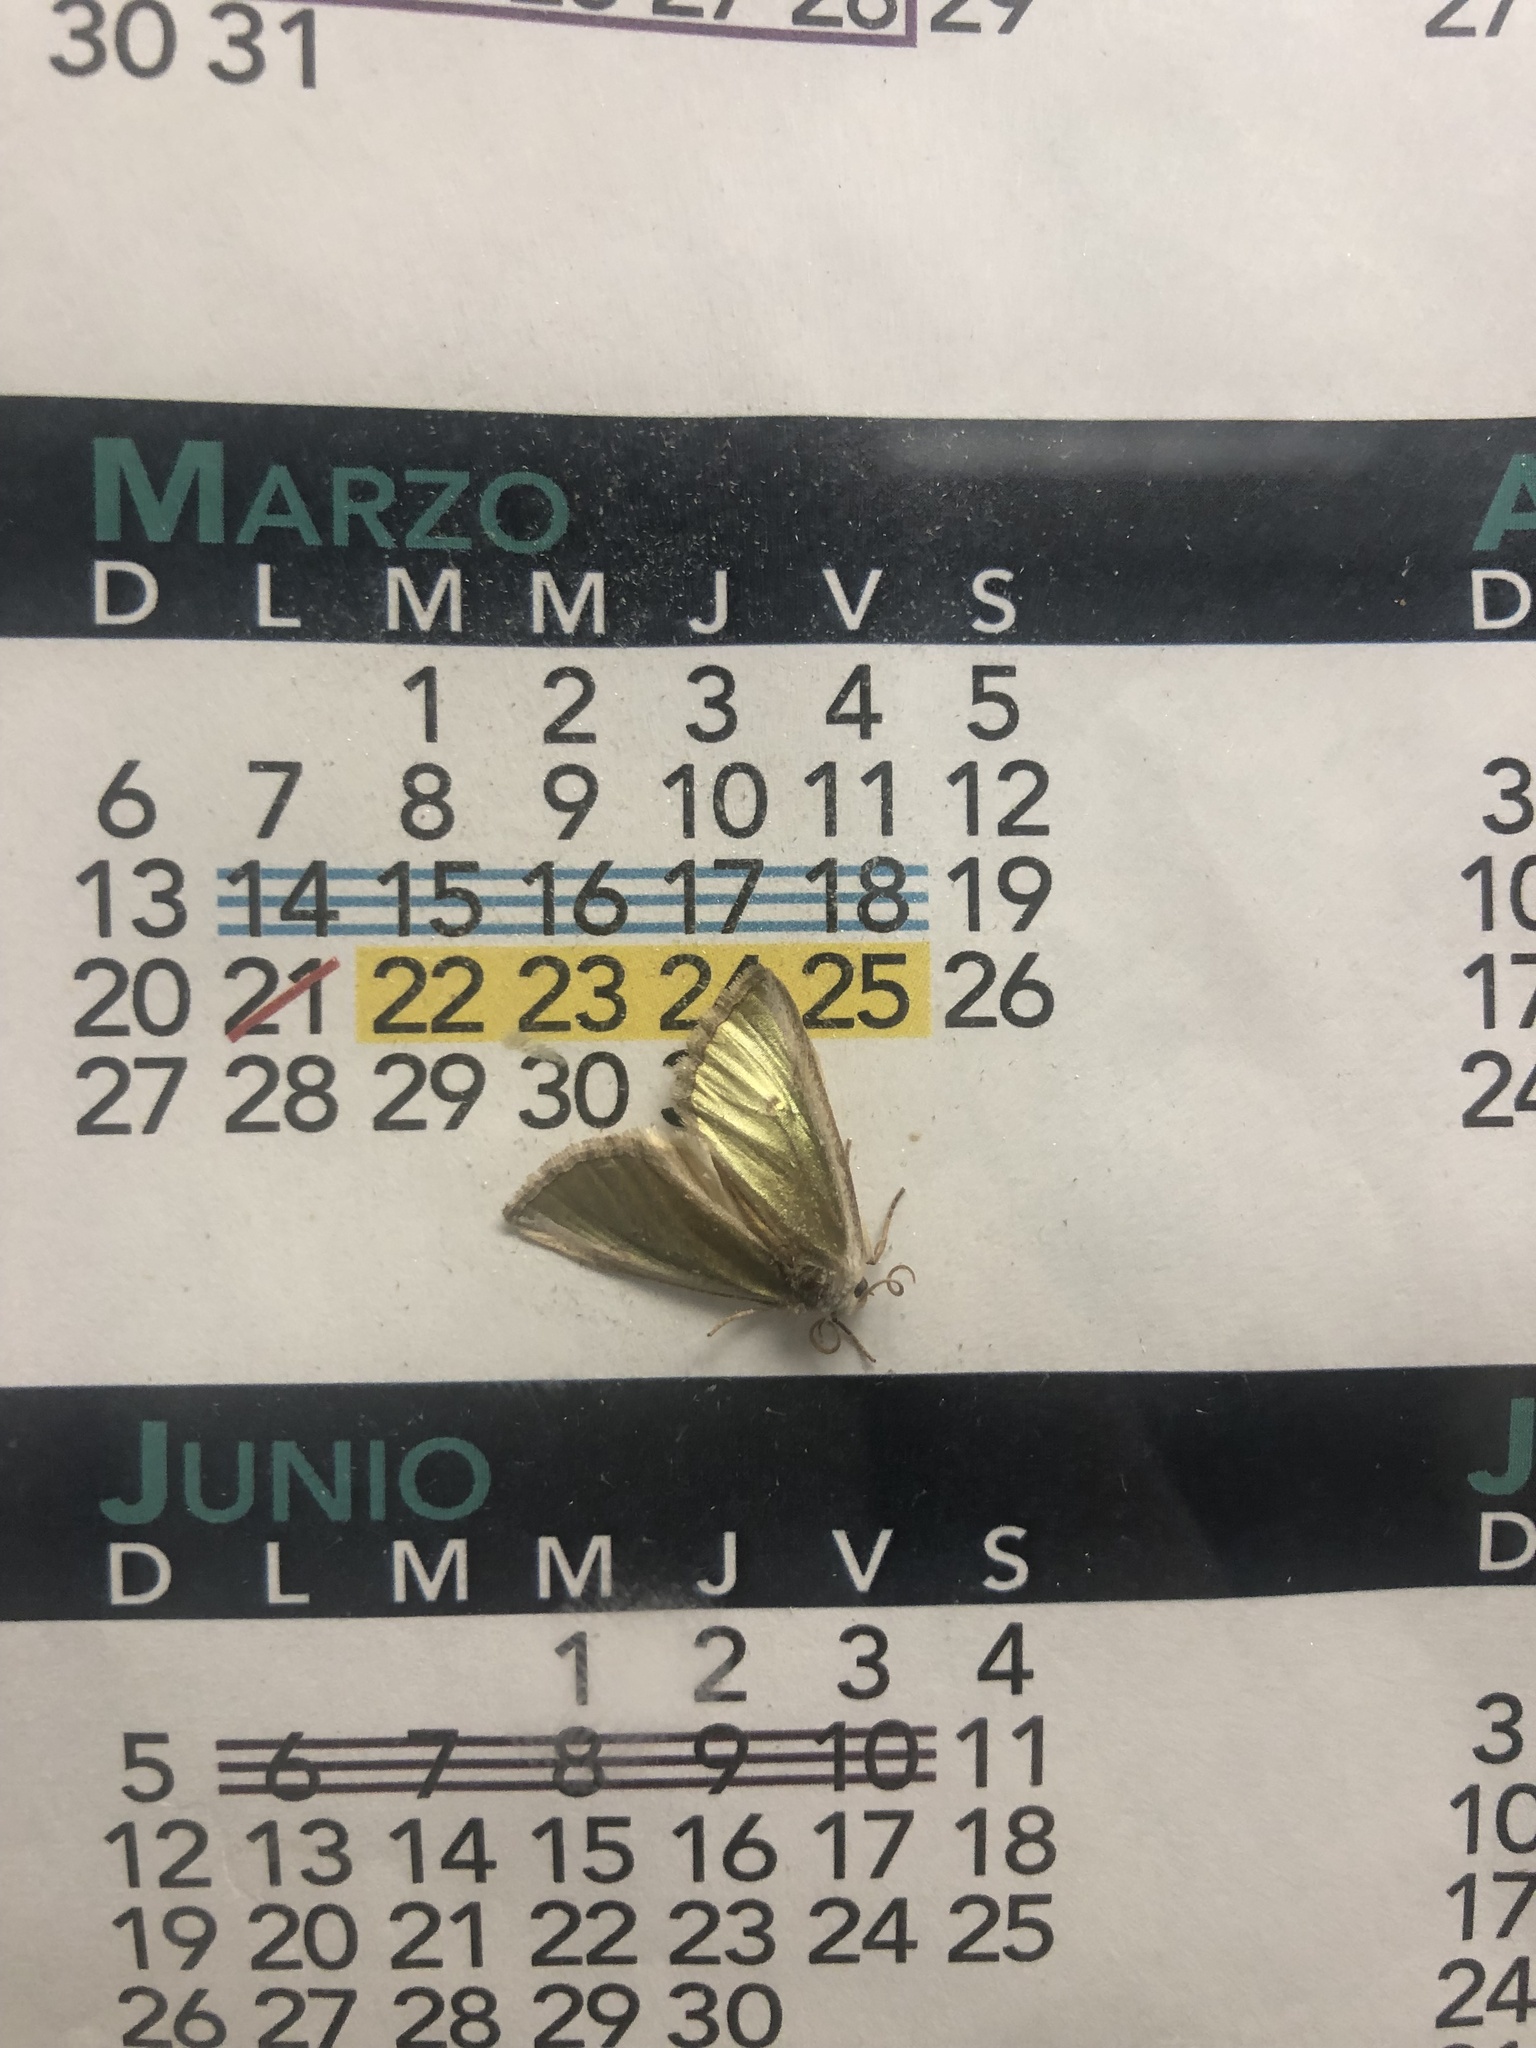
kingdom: Animalia
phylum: Arthropoda
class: Insecta
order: Lepidoptera
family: Noctuidae
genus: Neumoegenia
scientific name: Neumoegenia coronides
